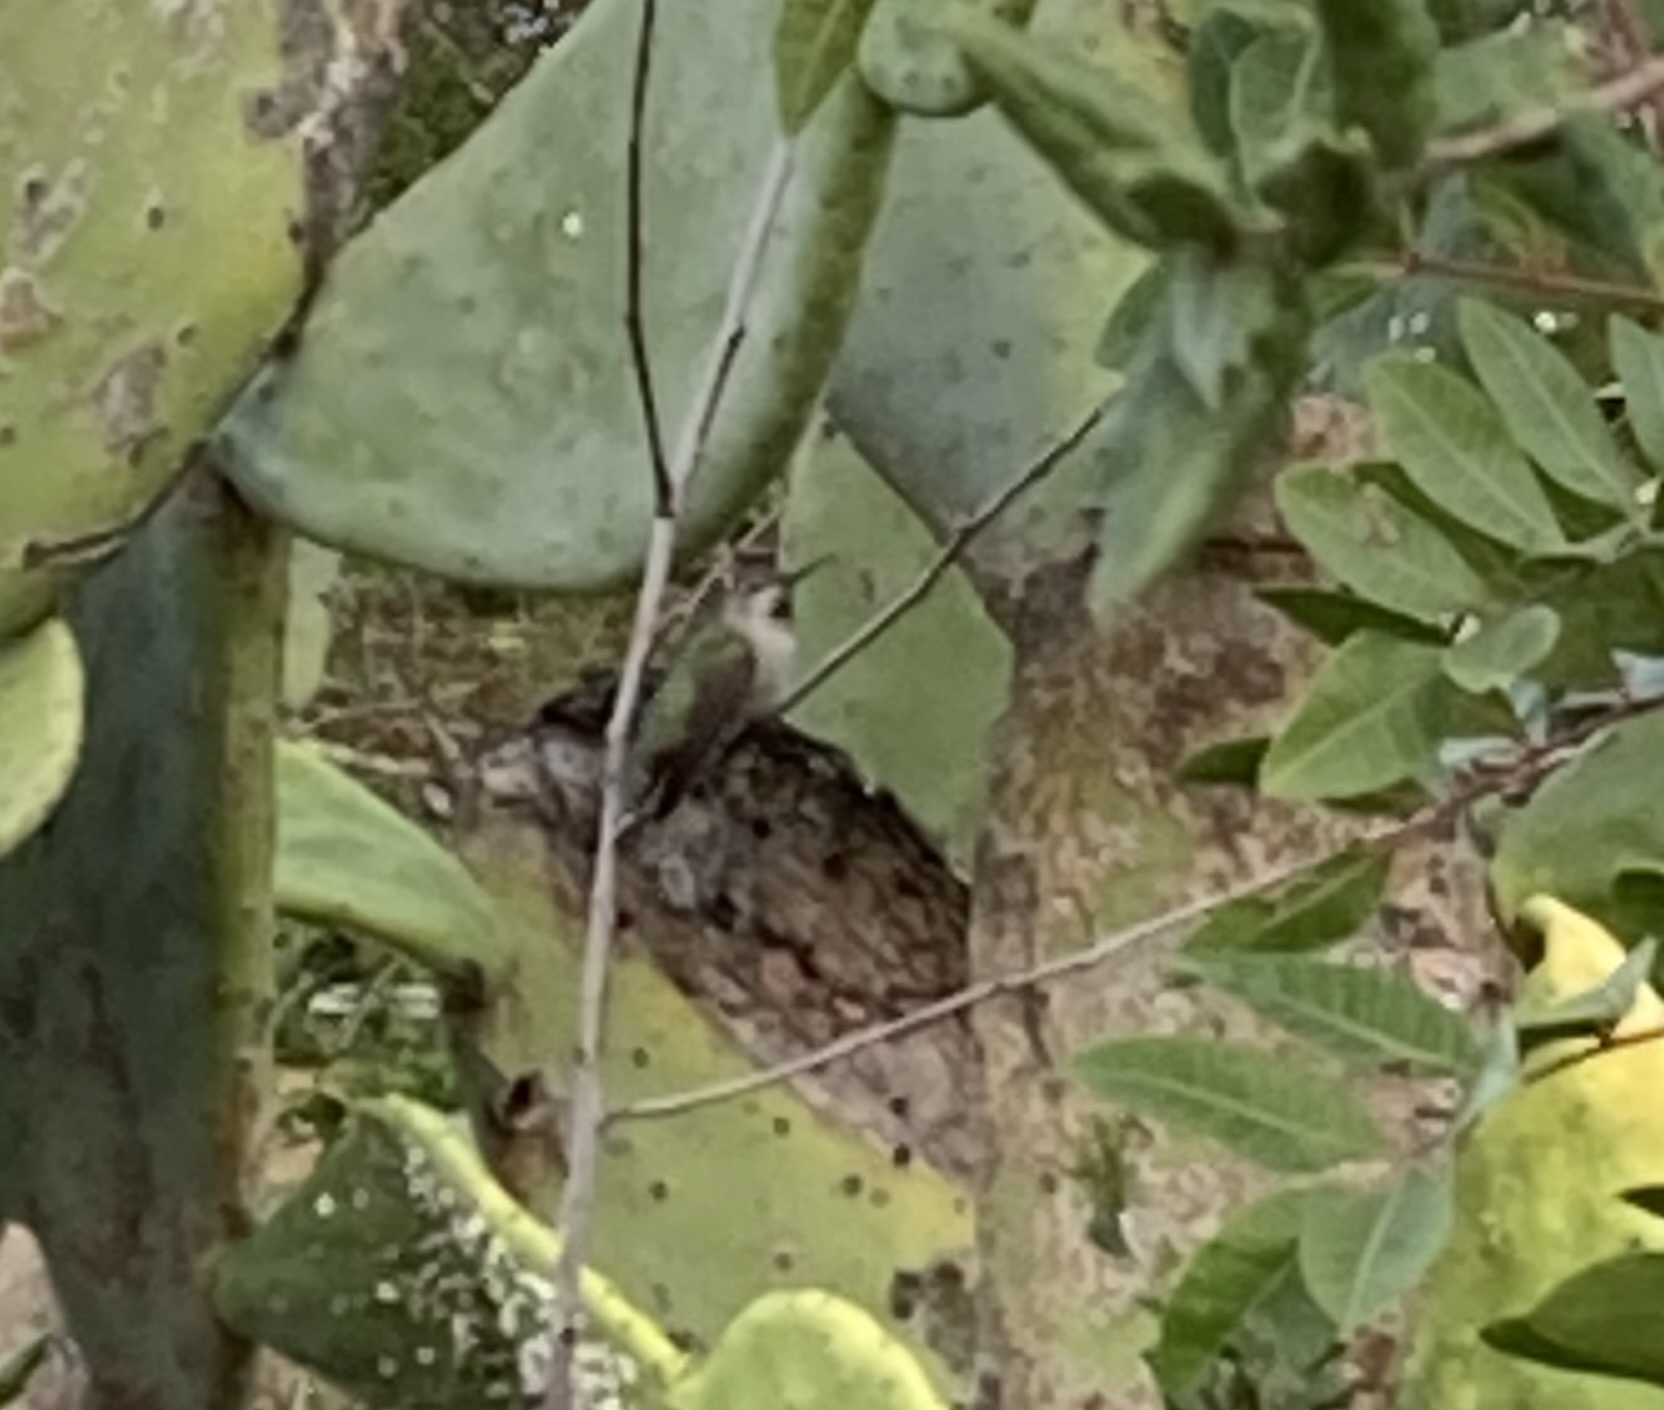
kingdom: Animalia
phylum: Chordata
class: Aves
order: Apodiformes
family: Trochilidae
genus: Calypte
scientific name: Calypte anna
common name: Anna's hummingbird
